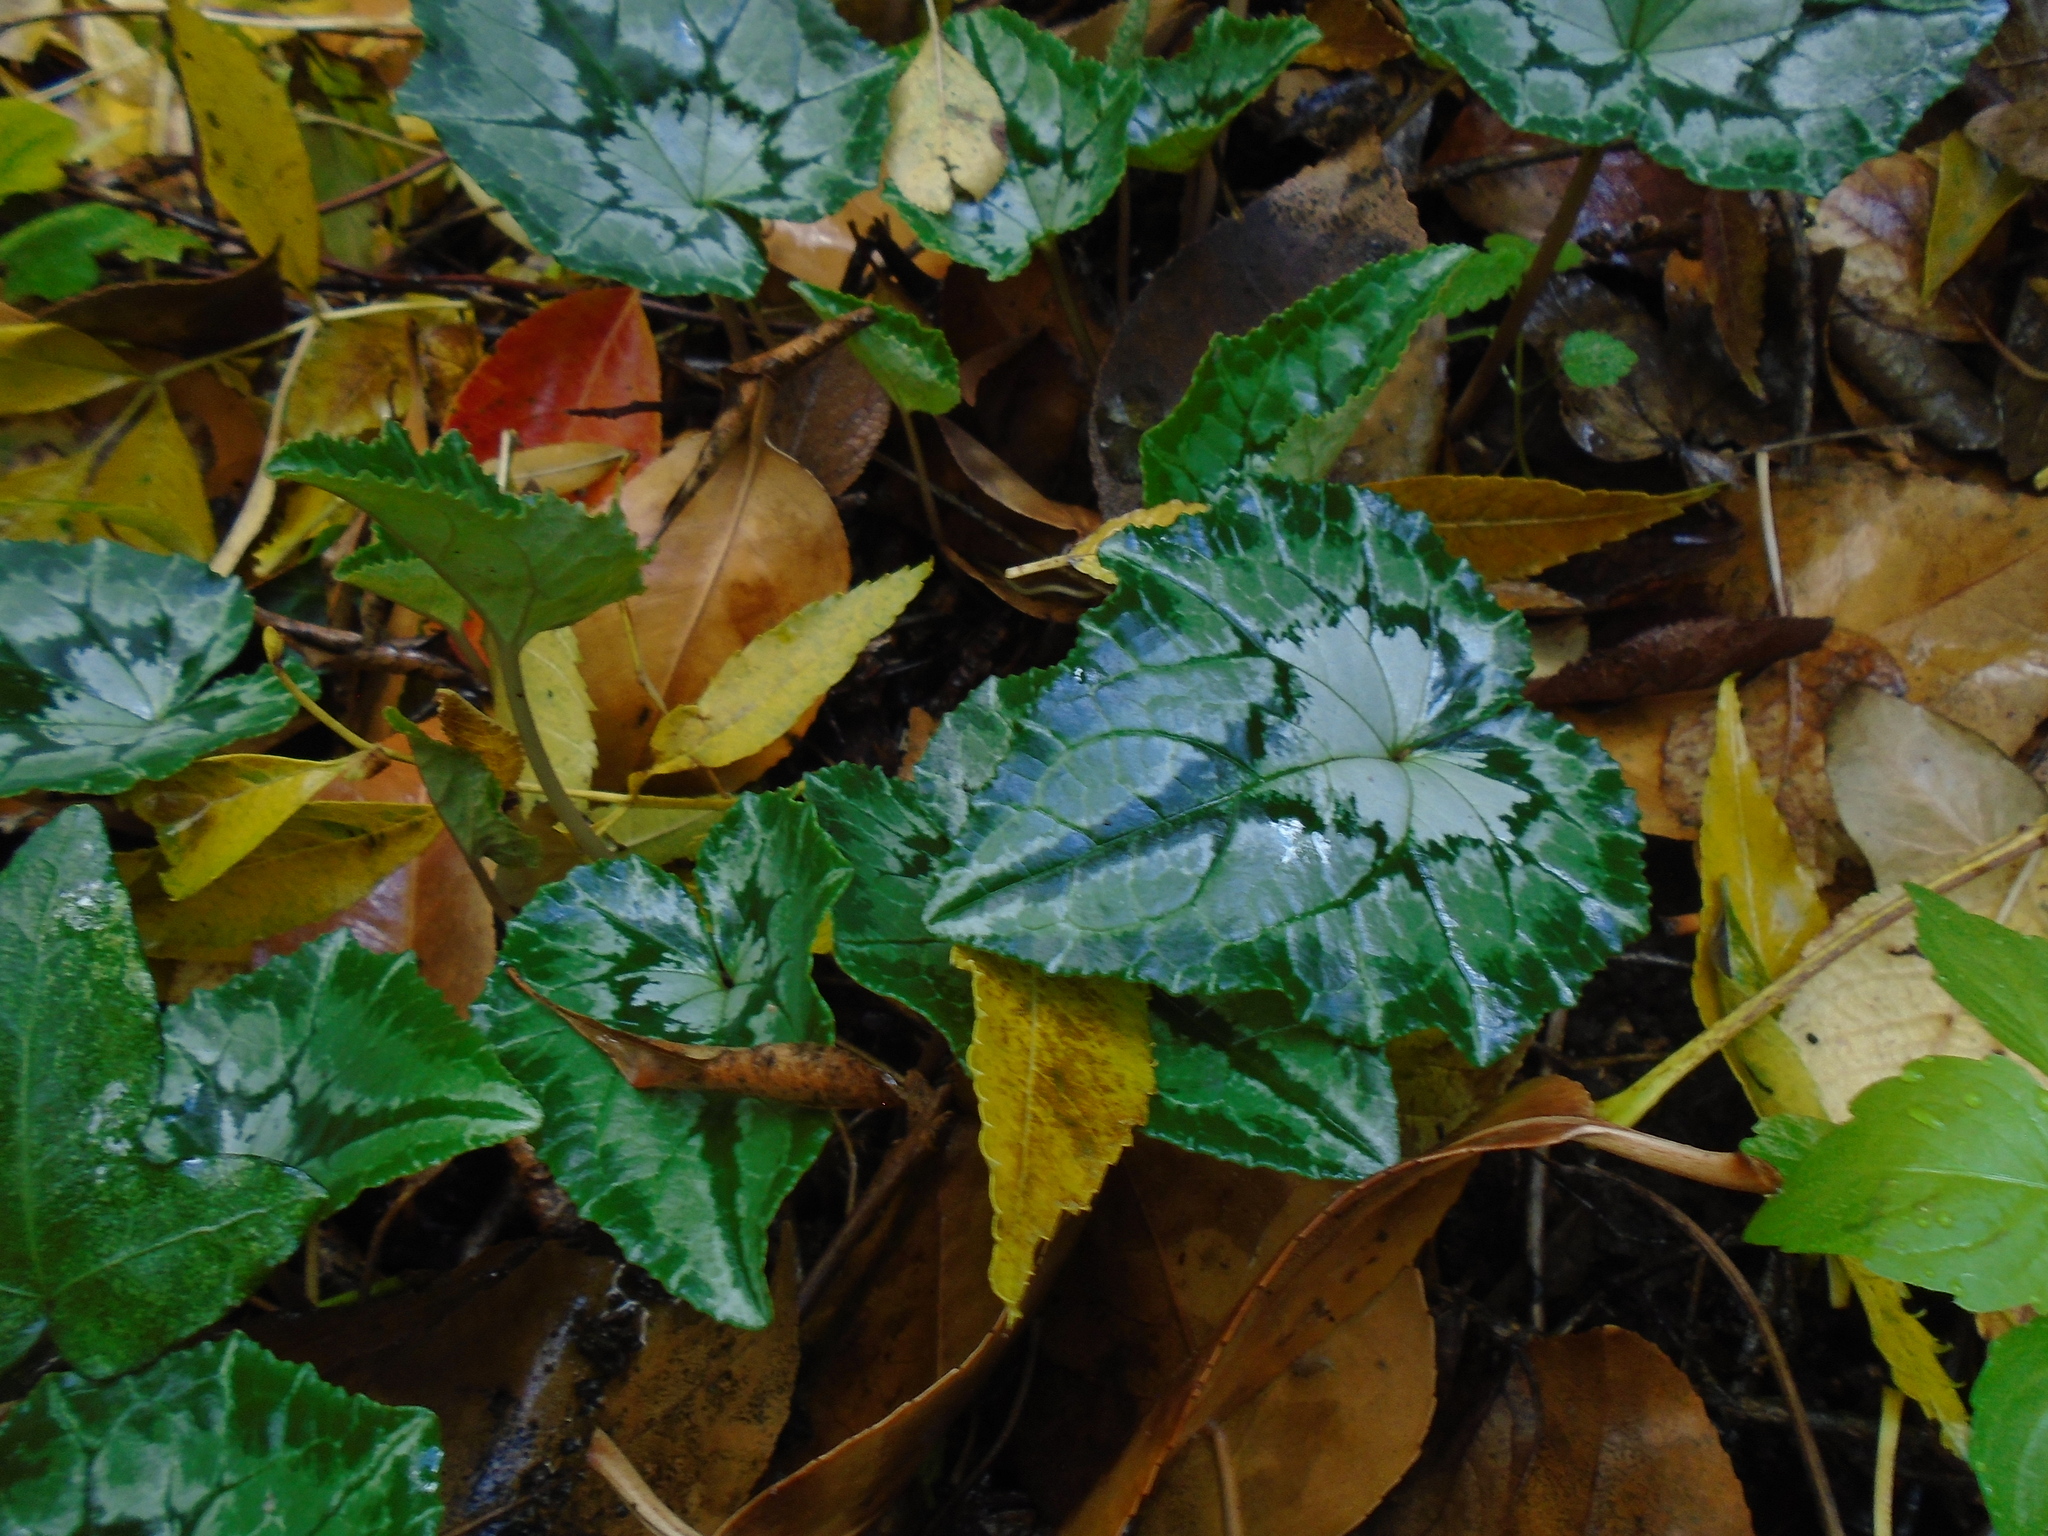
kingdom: Plantae
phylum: Tracheophyta
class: Magnoliopsida
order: Ericales
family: Primulaceae
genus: Cyclamen
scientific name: Cyclamen hederifolium
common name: Sowbread
